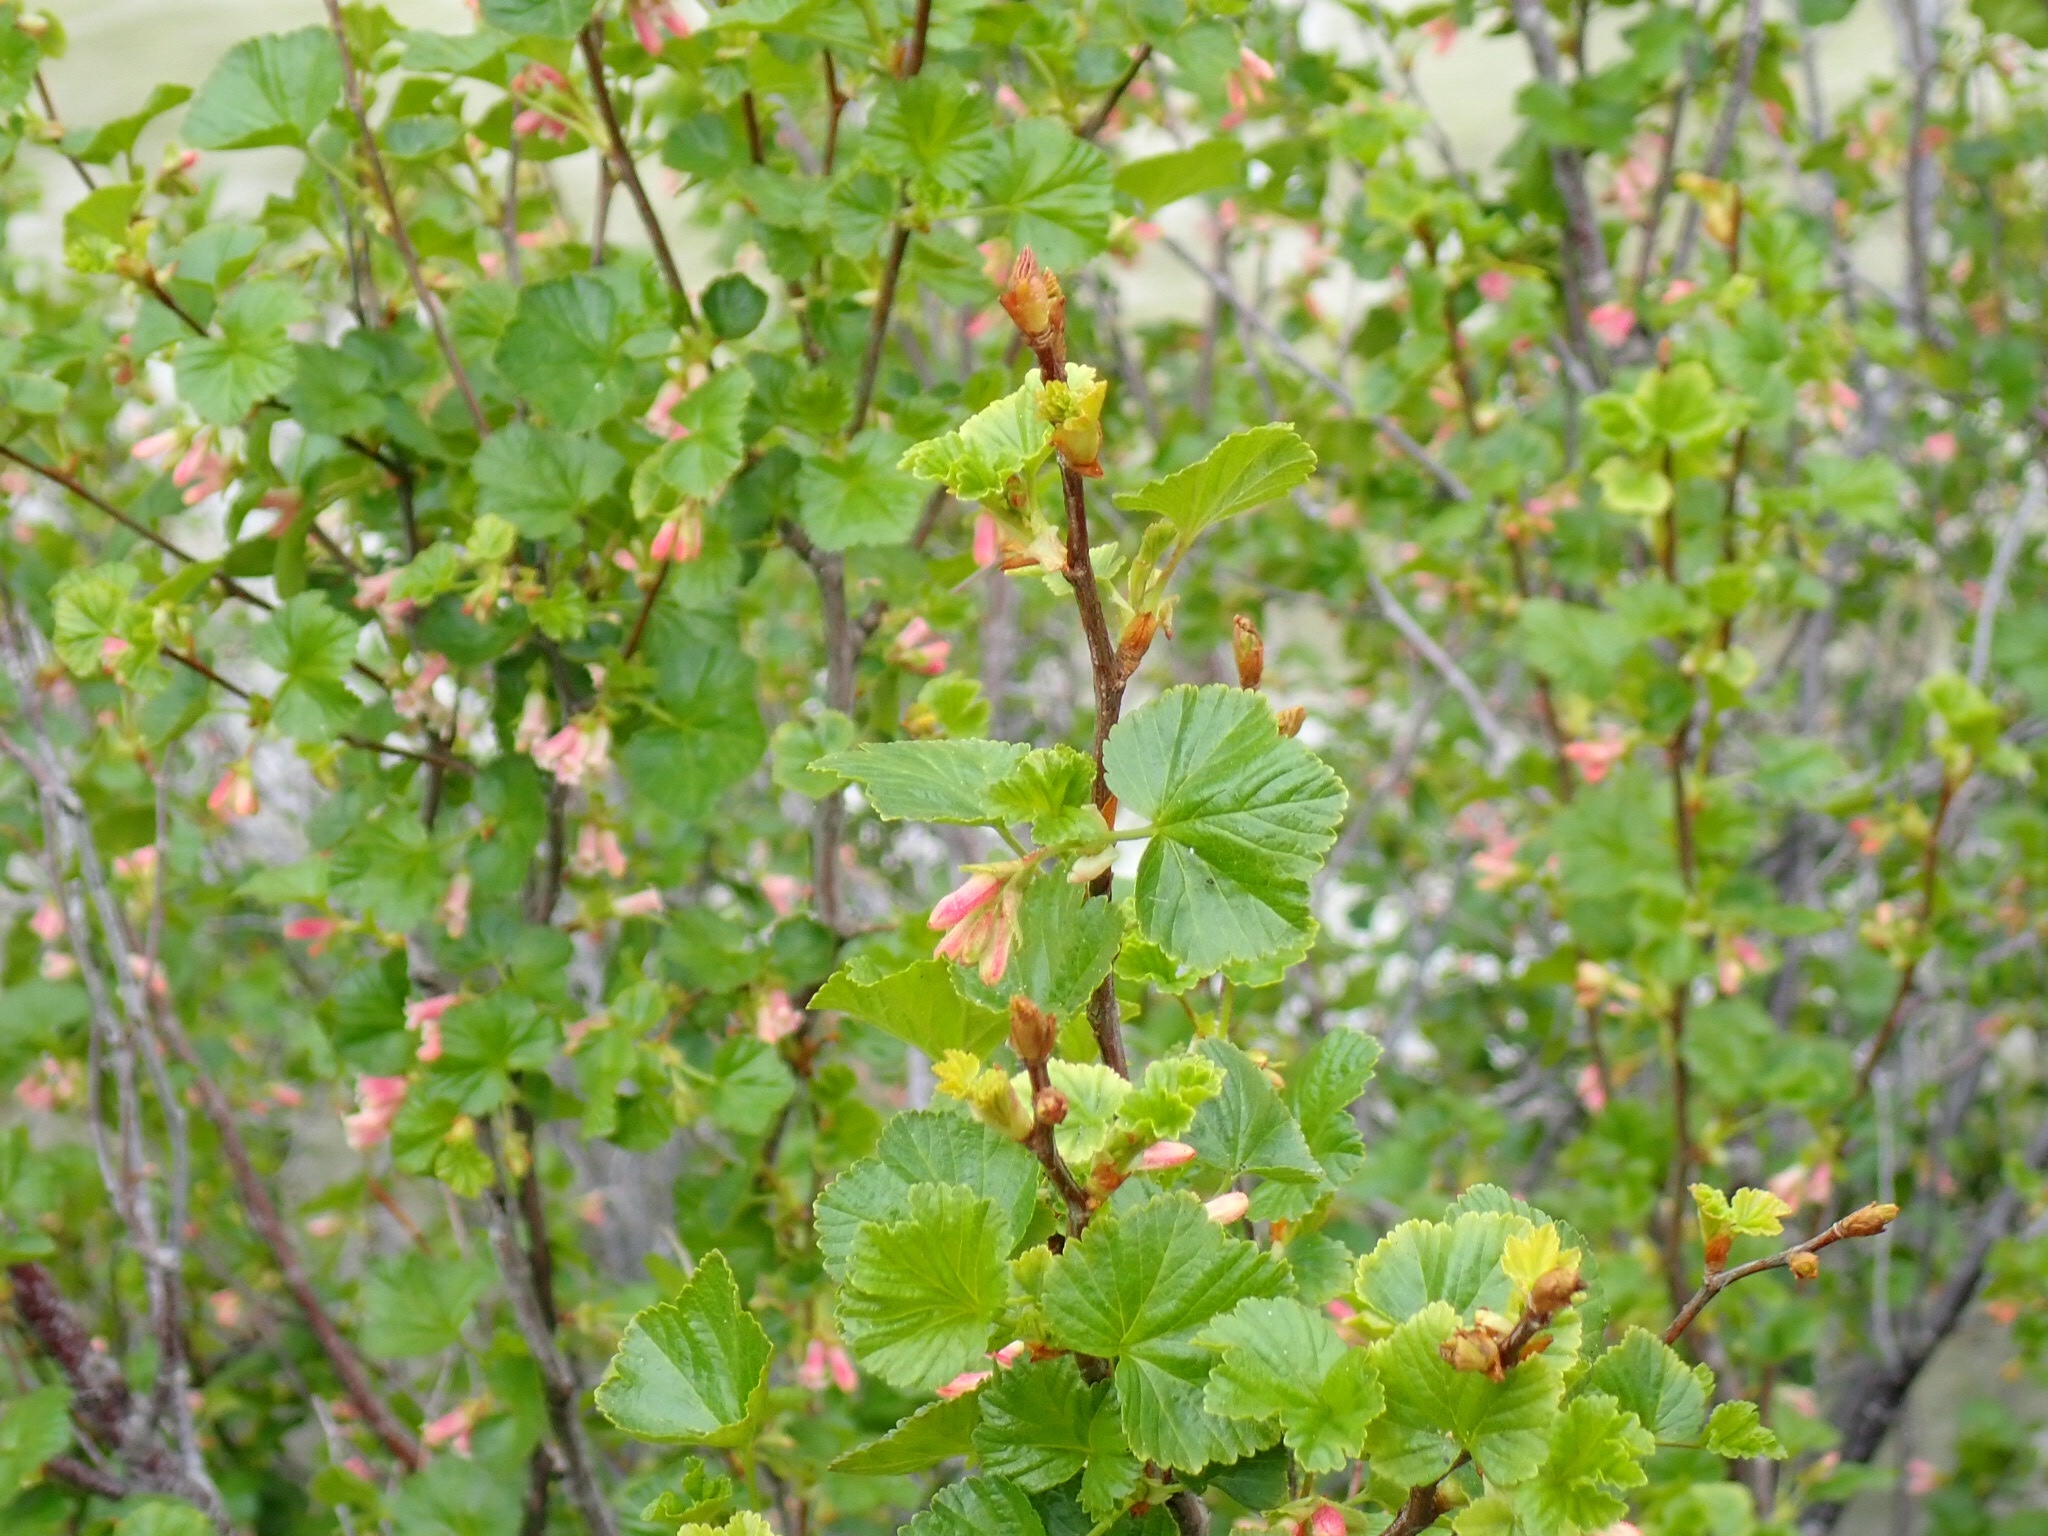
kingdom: Plantae
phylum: Tracheophyta
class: Magnoliopsida
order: Saxifragales
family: Grossulariaceae
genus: Ribes
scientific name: Ribes cereum
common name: Wax currant
